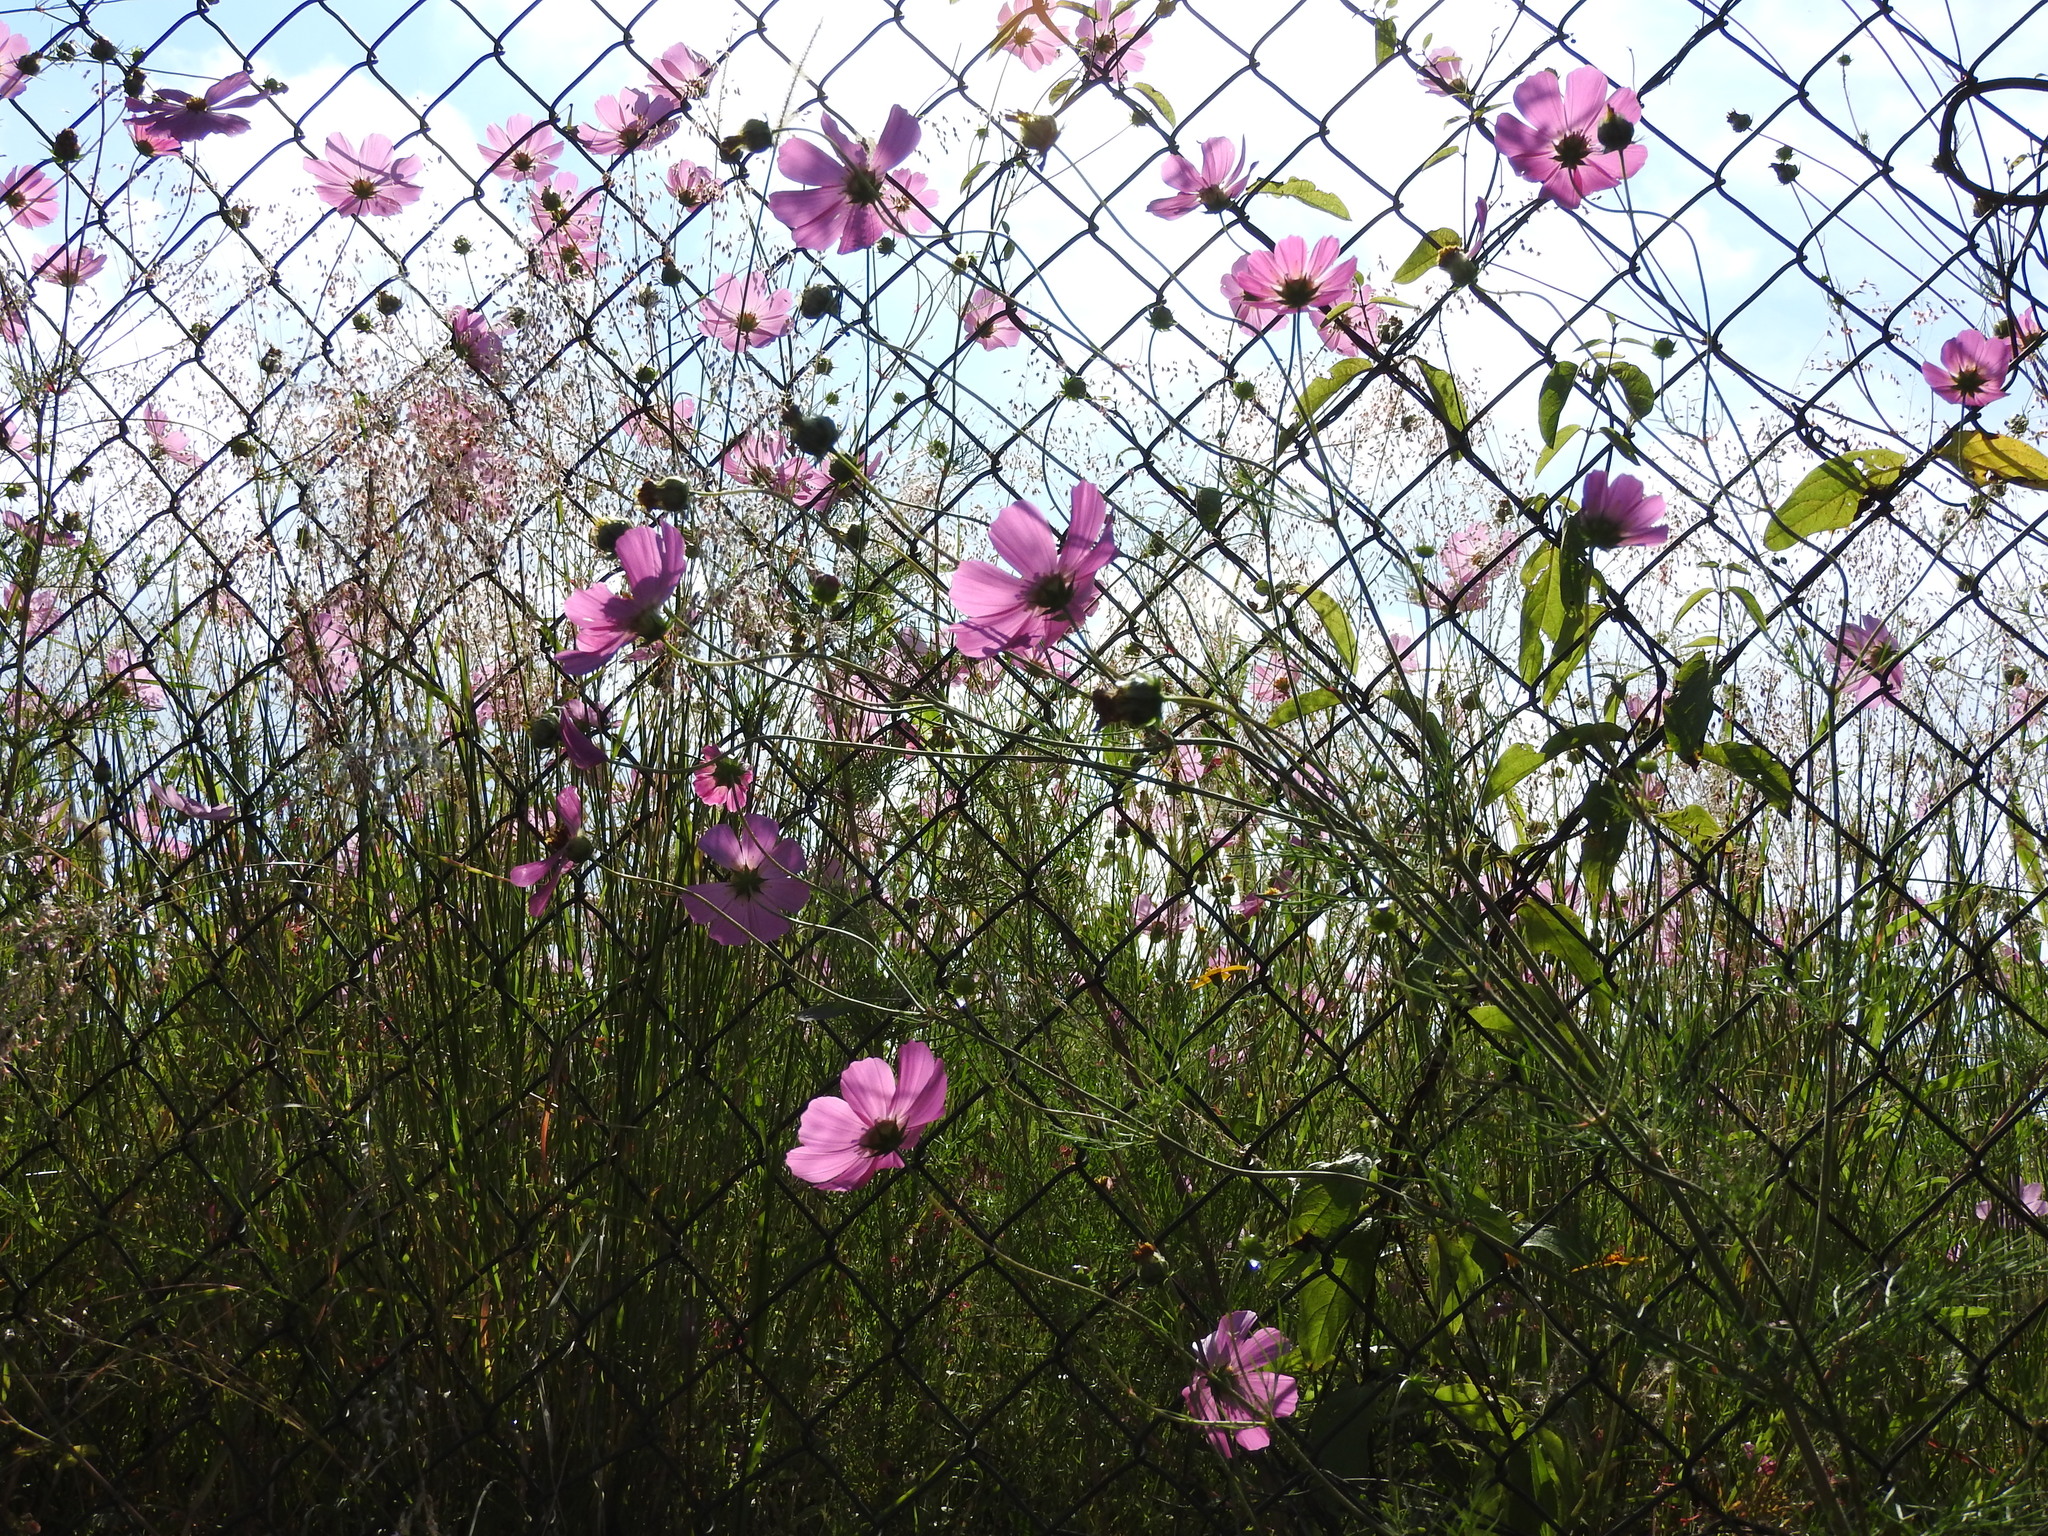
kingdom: Plantae
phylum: Tracheophyta
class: Magnoliopsida
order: Asterales
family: Asteraceae
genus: Cosmos
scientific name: Cosmos bipinnatus
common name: Garden cosmos
